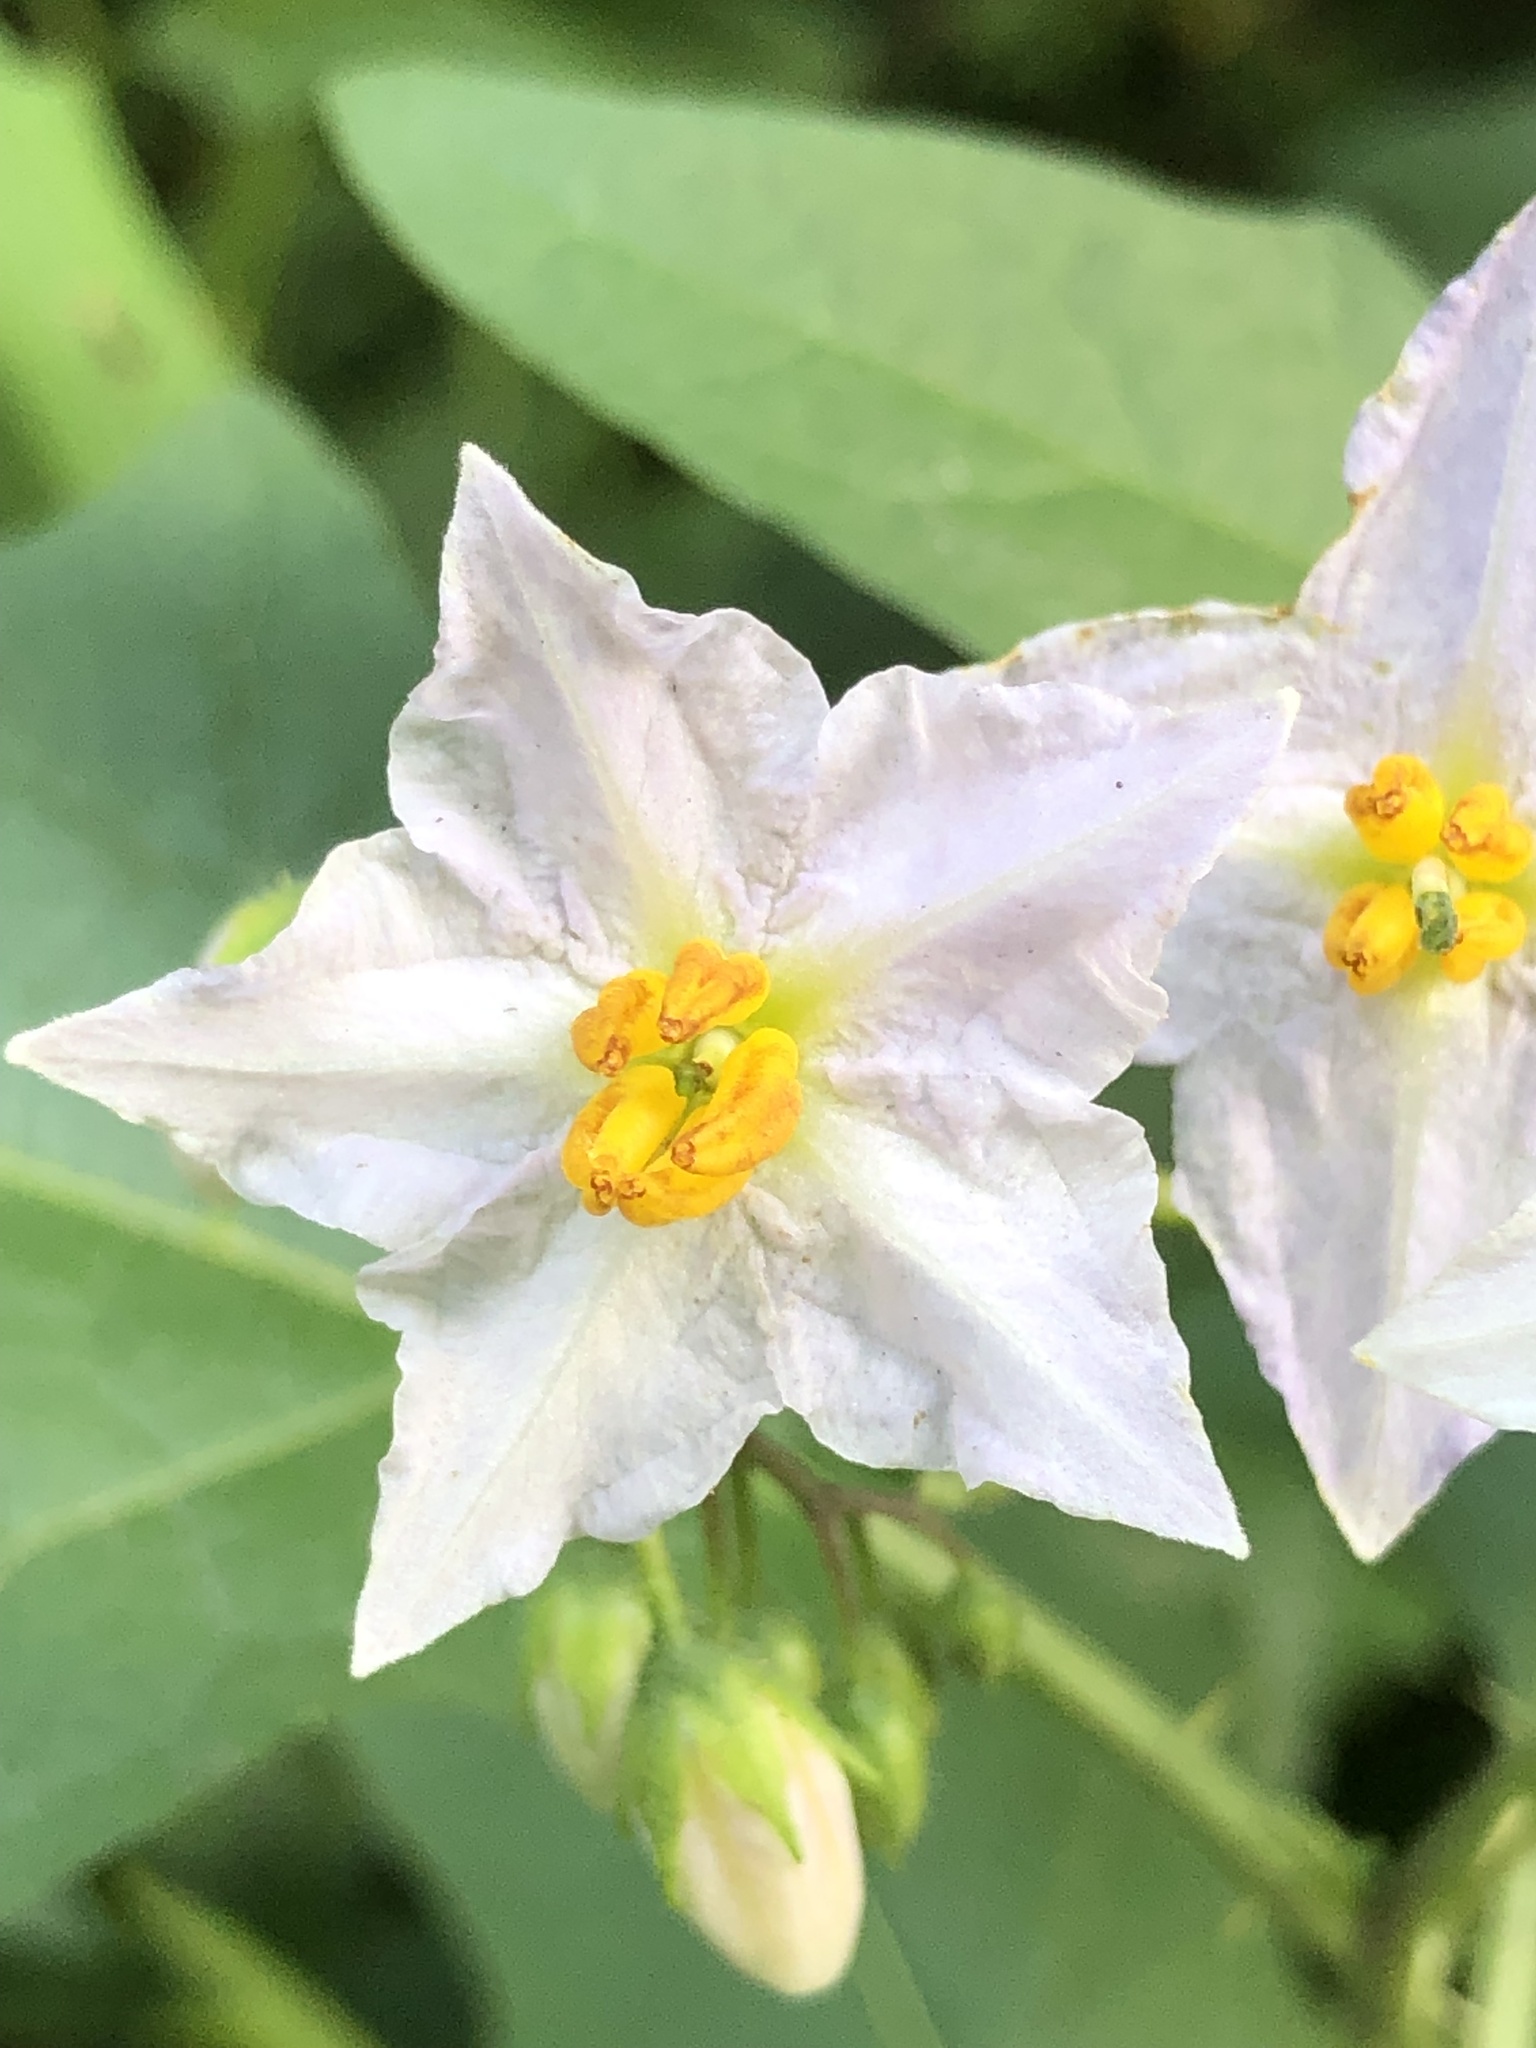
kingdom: Plantae
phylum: Tracheophyta
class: Magnoliopsida
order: Solanales
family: Solanaceae
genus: Solanum
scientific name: Solanum carolinense
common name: Horse-nettle
